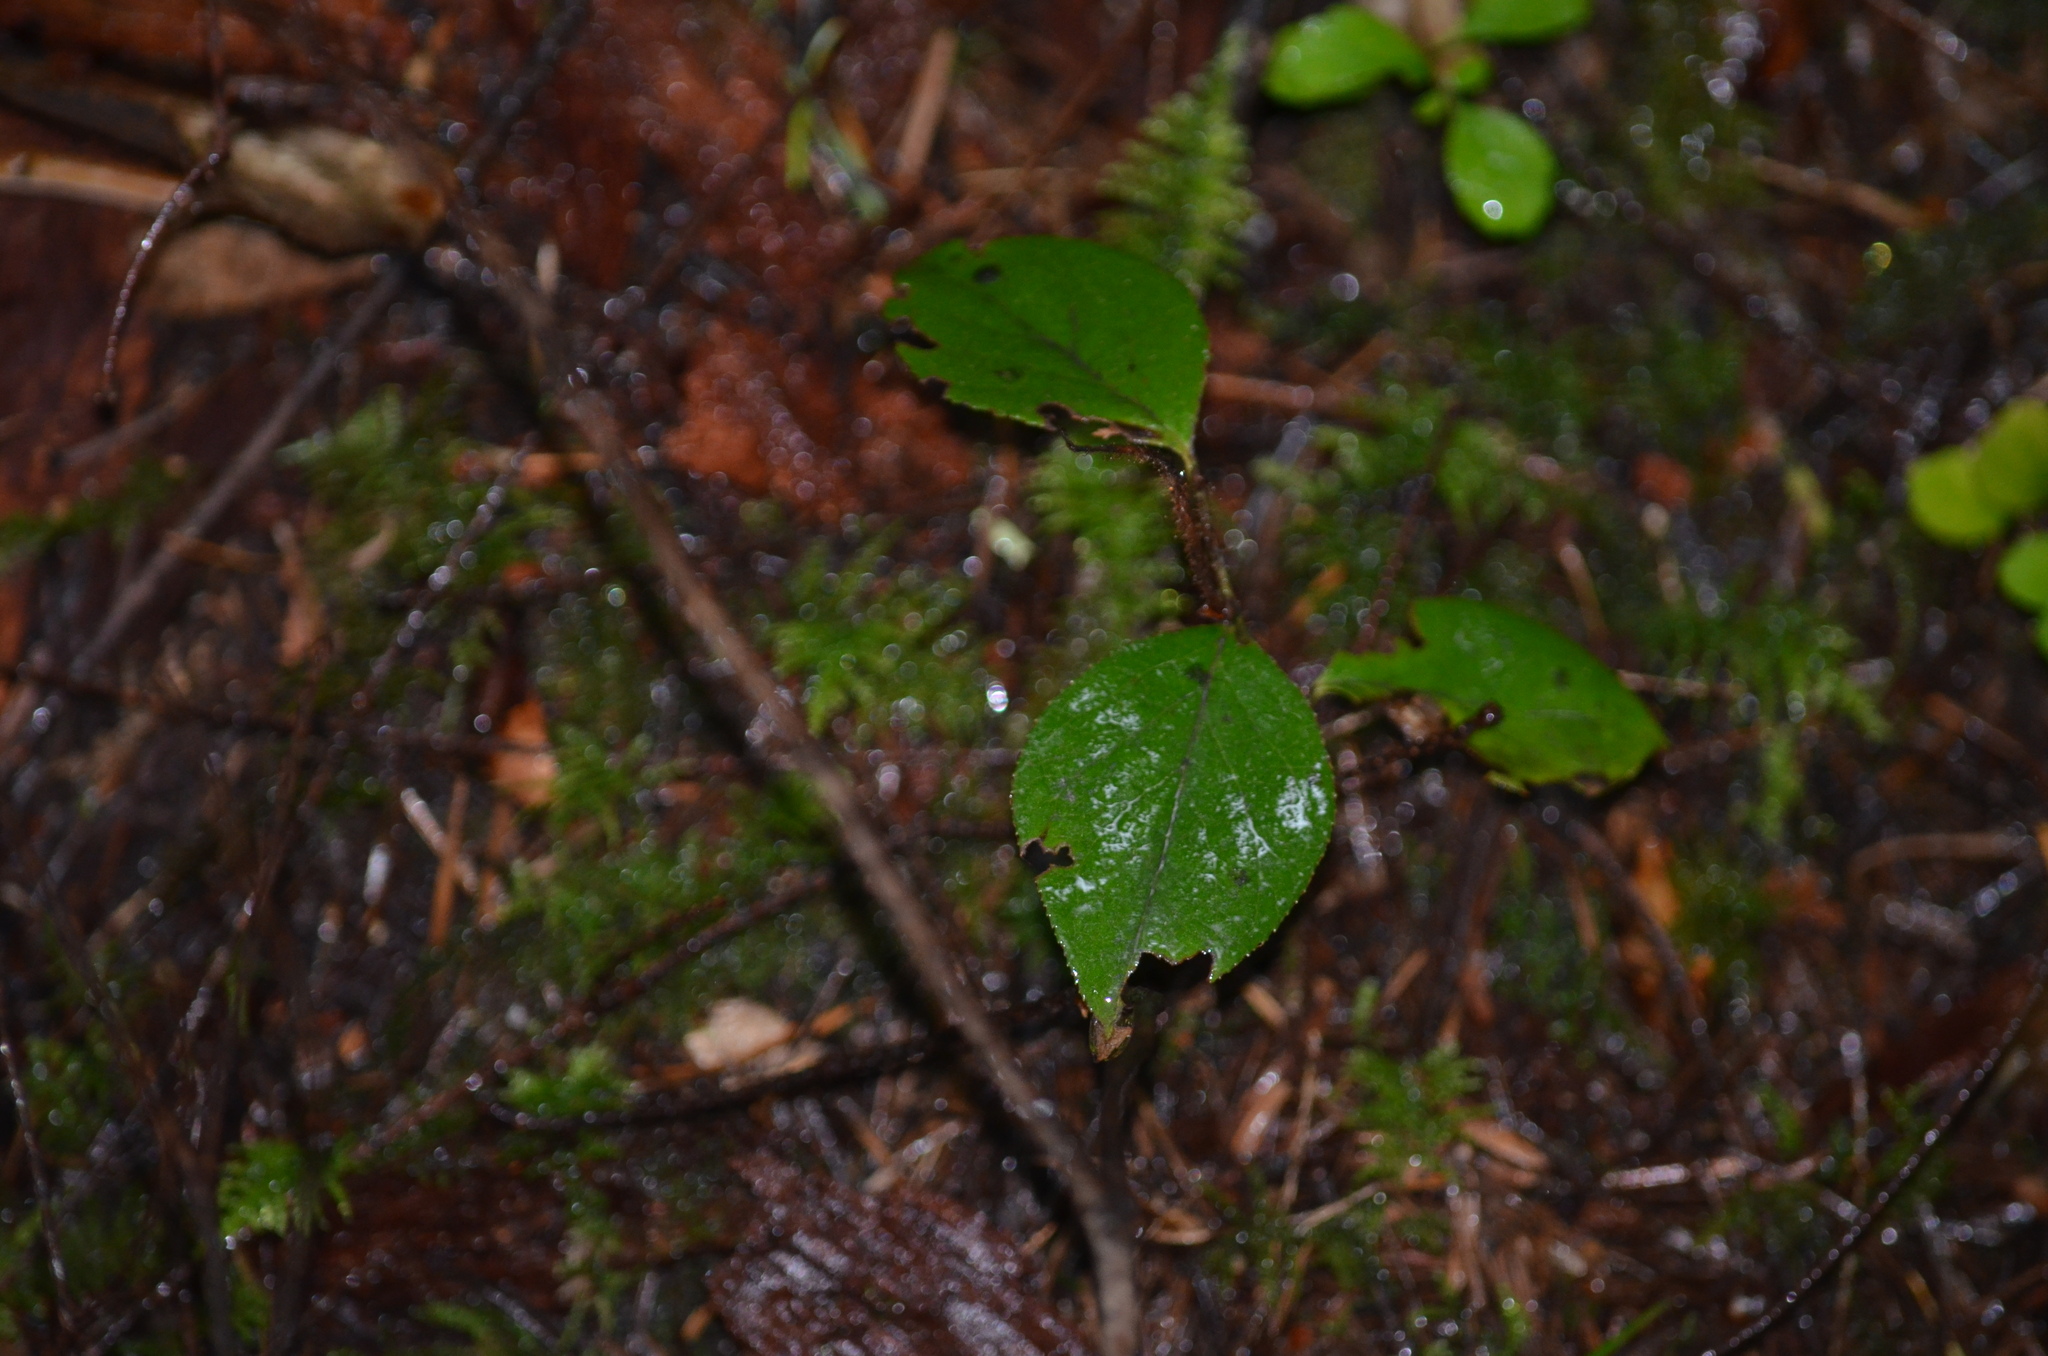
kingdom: Plantae
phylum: Tracheophyta
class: Magnoliopsida
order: Ericales
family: Ericaceae
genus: Gaultheria
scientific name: Gaultheria ovatifolia
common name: Oregon wintergreen
